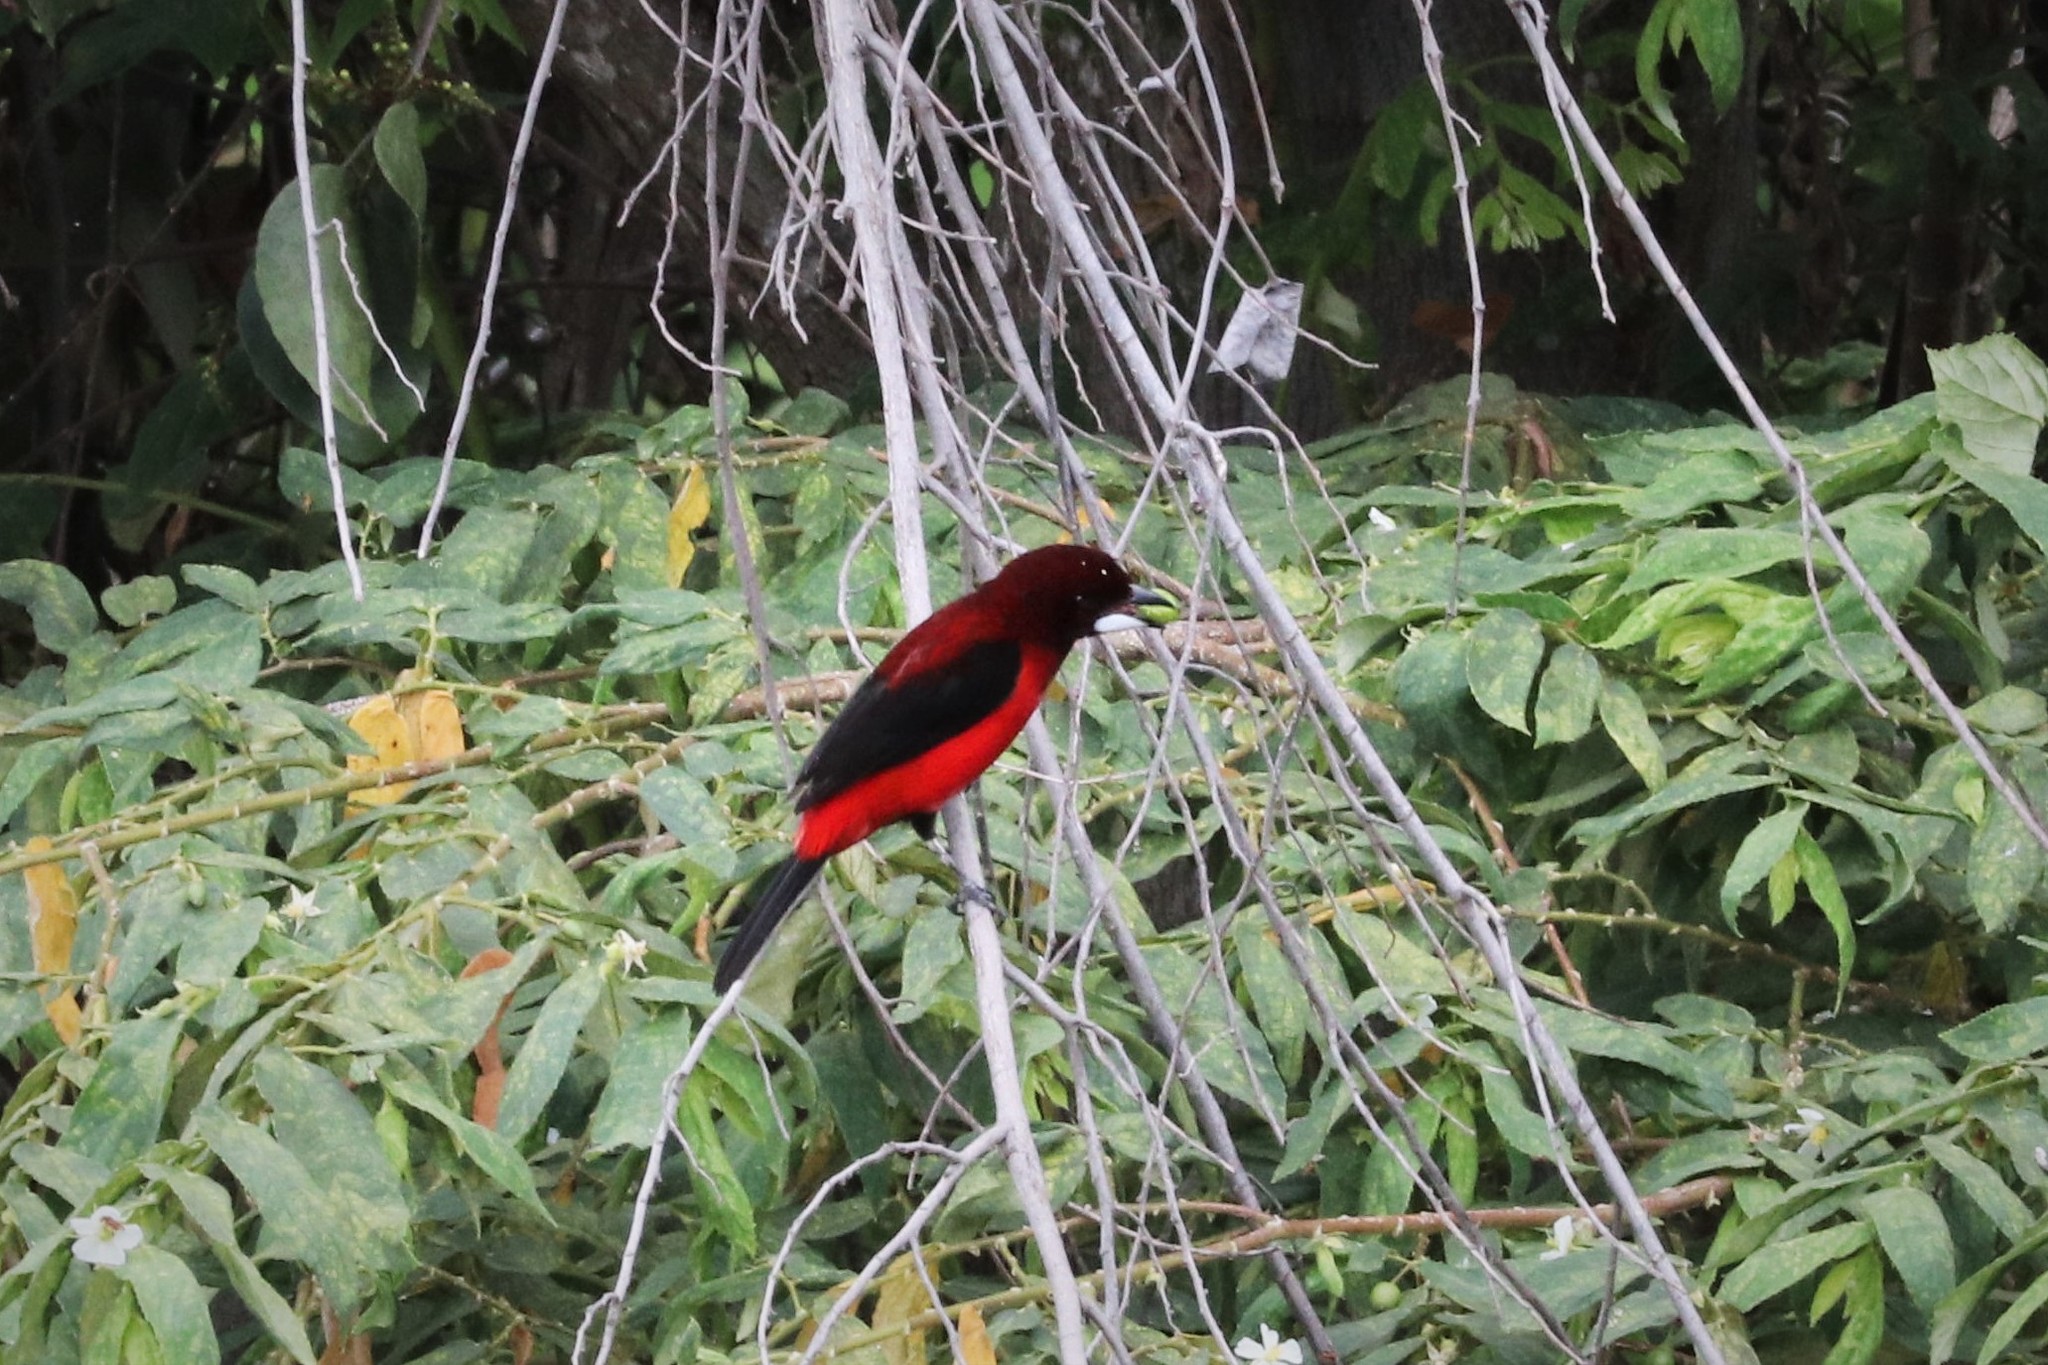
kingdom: Animalia
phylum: Chordata
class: Aves
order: Passeriformes
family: Thraupidae
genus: Ramphocelus
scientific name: Ramphocelus dimidiatus
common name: Crimson-backed tanager
